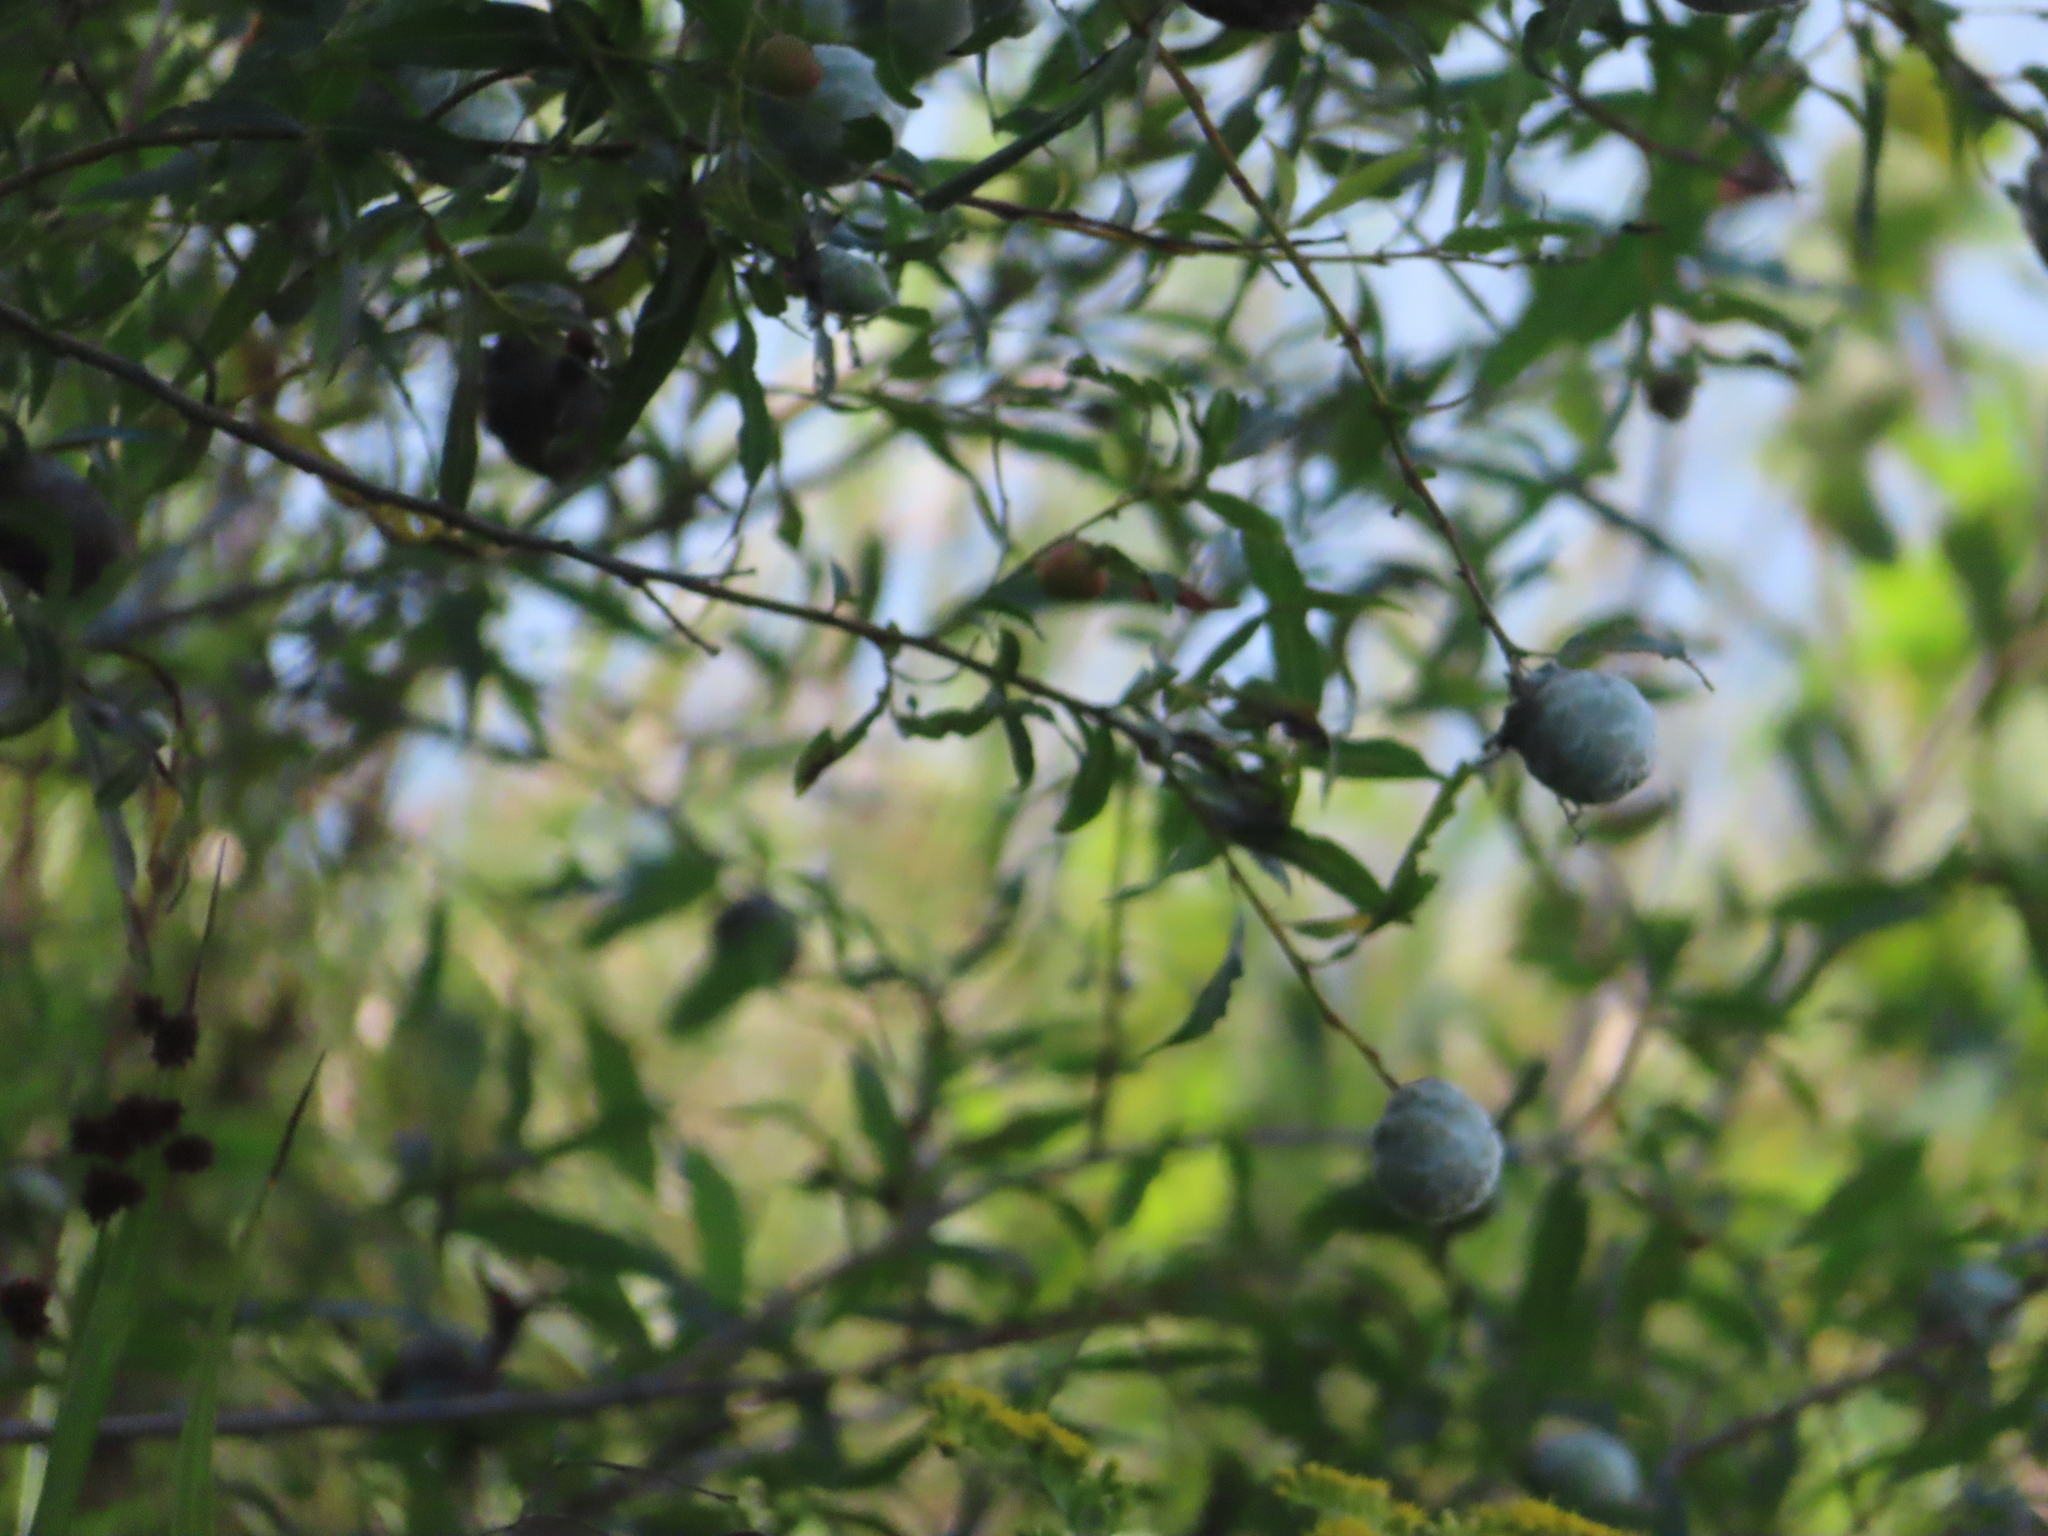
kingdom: Animalia
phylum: Arthropoda
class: Insecta
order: Diptera
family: Cecidomyiidae
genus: Rabdophaga
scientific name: Rabdophaga strobiloides
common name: Willow pinecone gall midge
